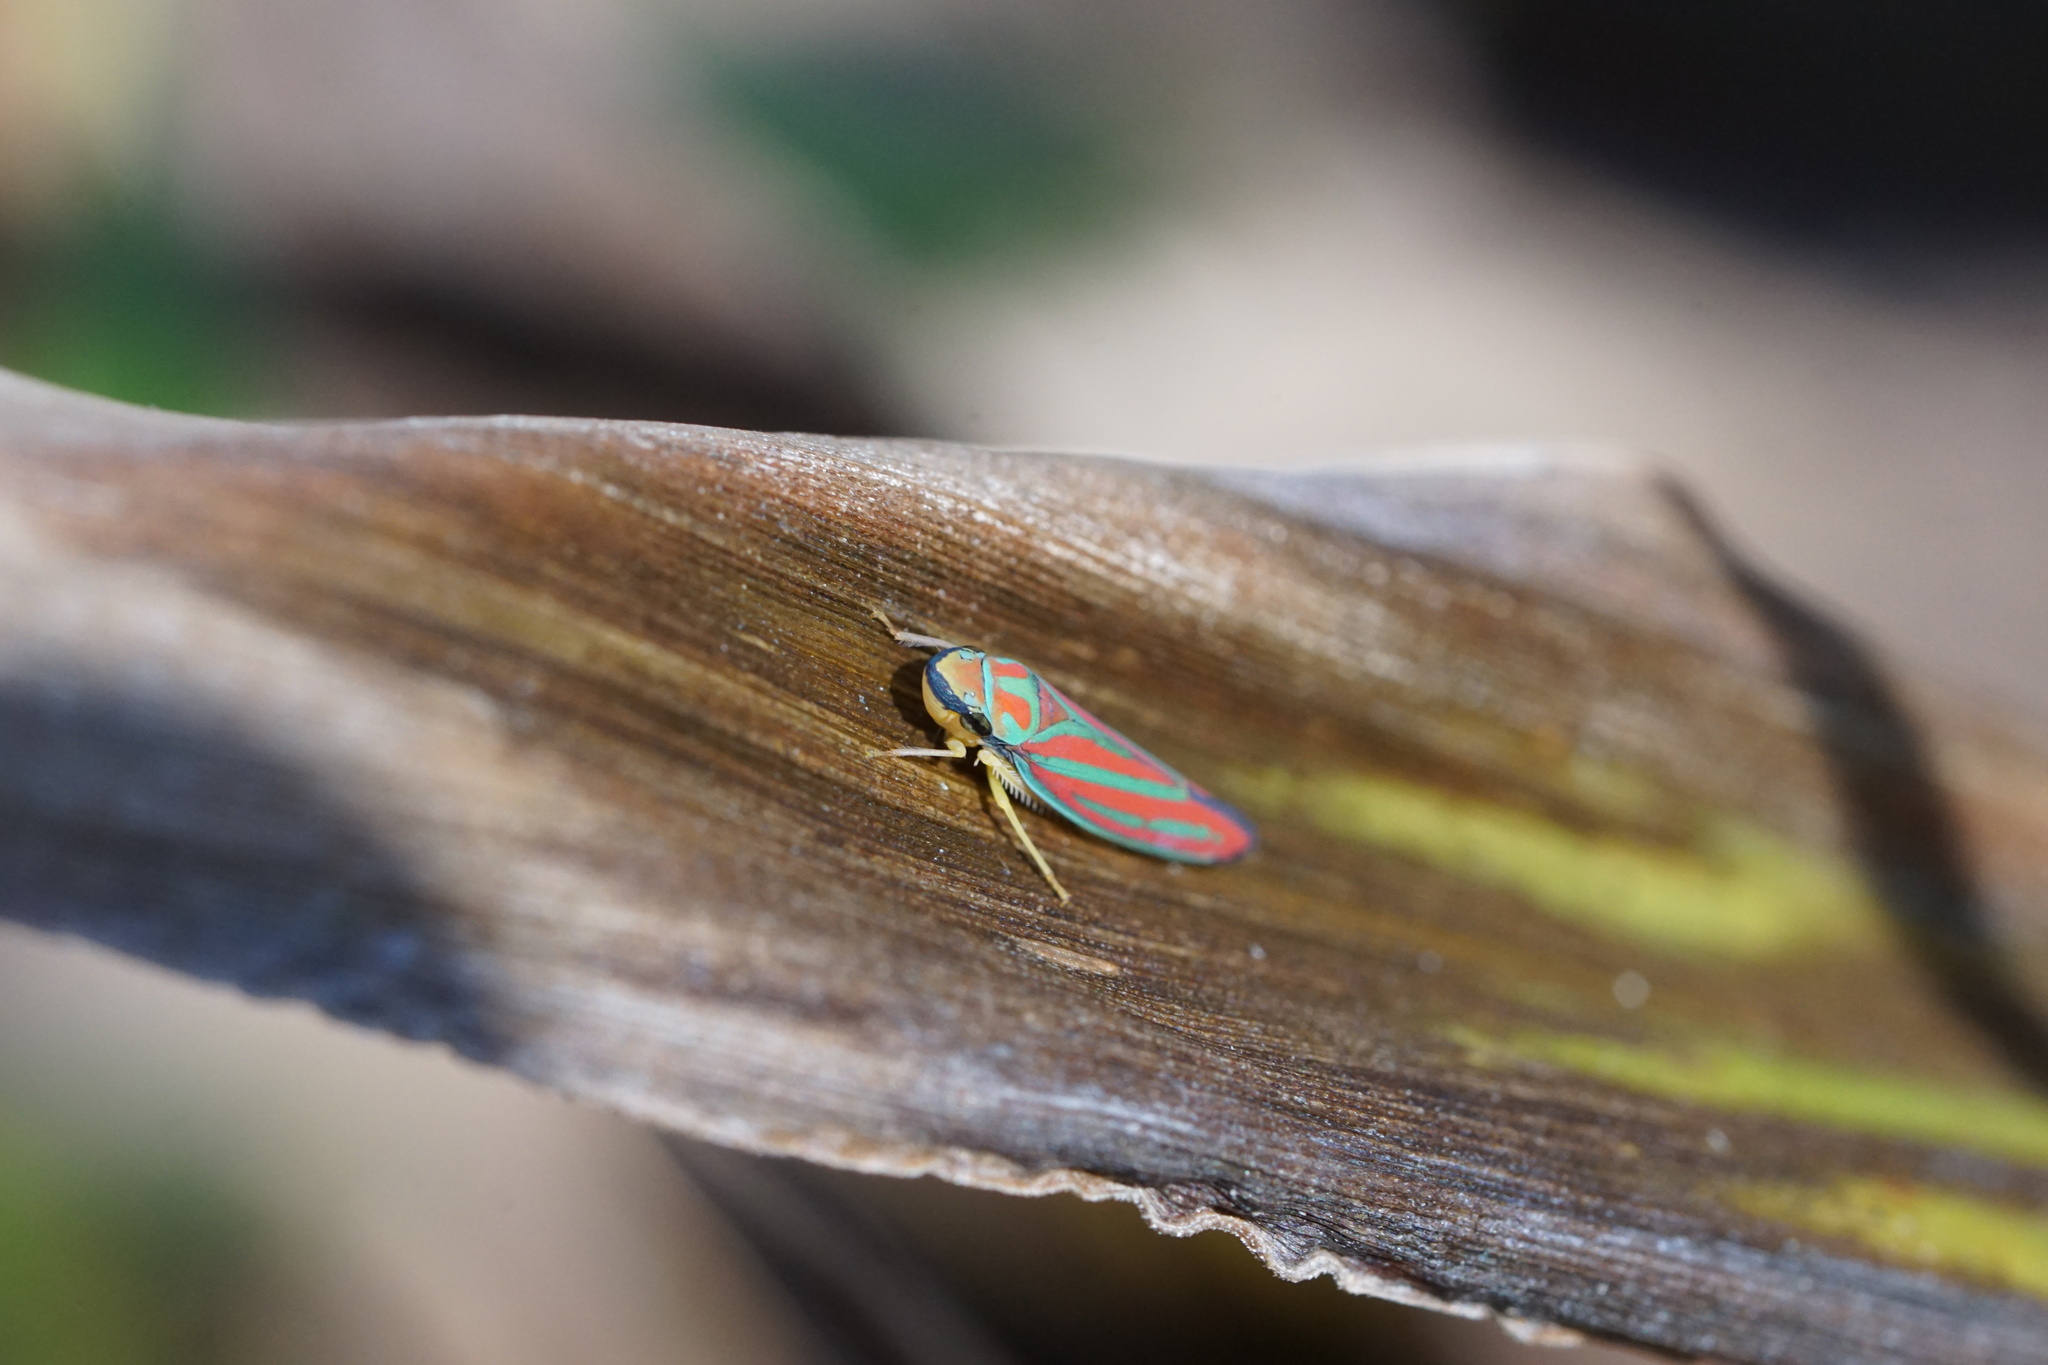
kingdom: Animalia
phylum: Arthropoda
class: Insecta
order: Hemiptera
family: Cicadellidae
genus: Graphocephala
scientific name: Graphocephala coccinea
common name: Candy-striped leafhopper
